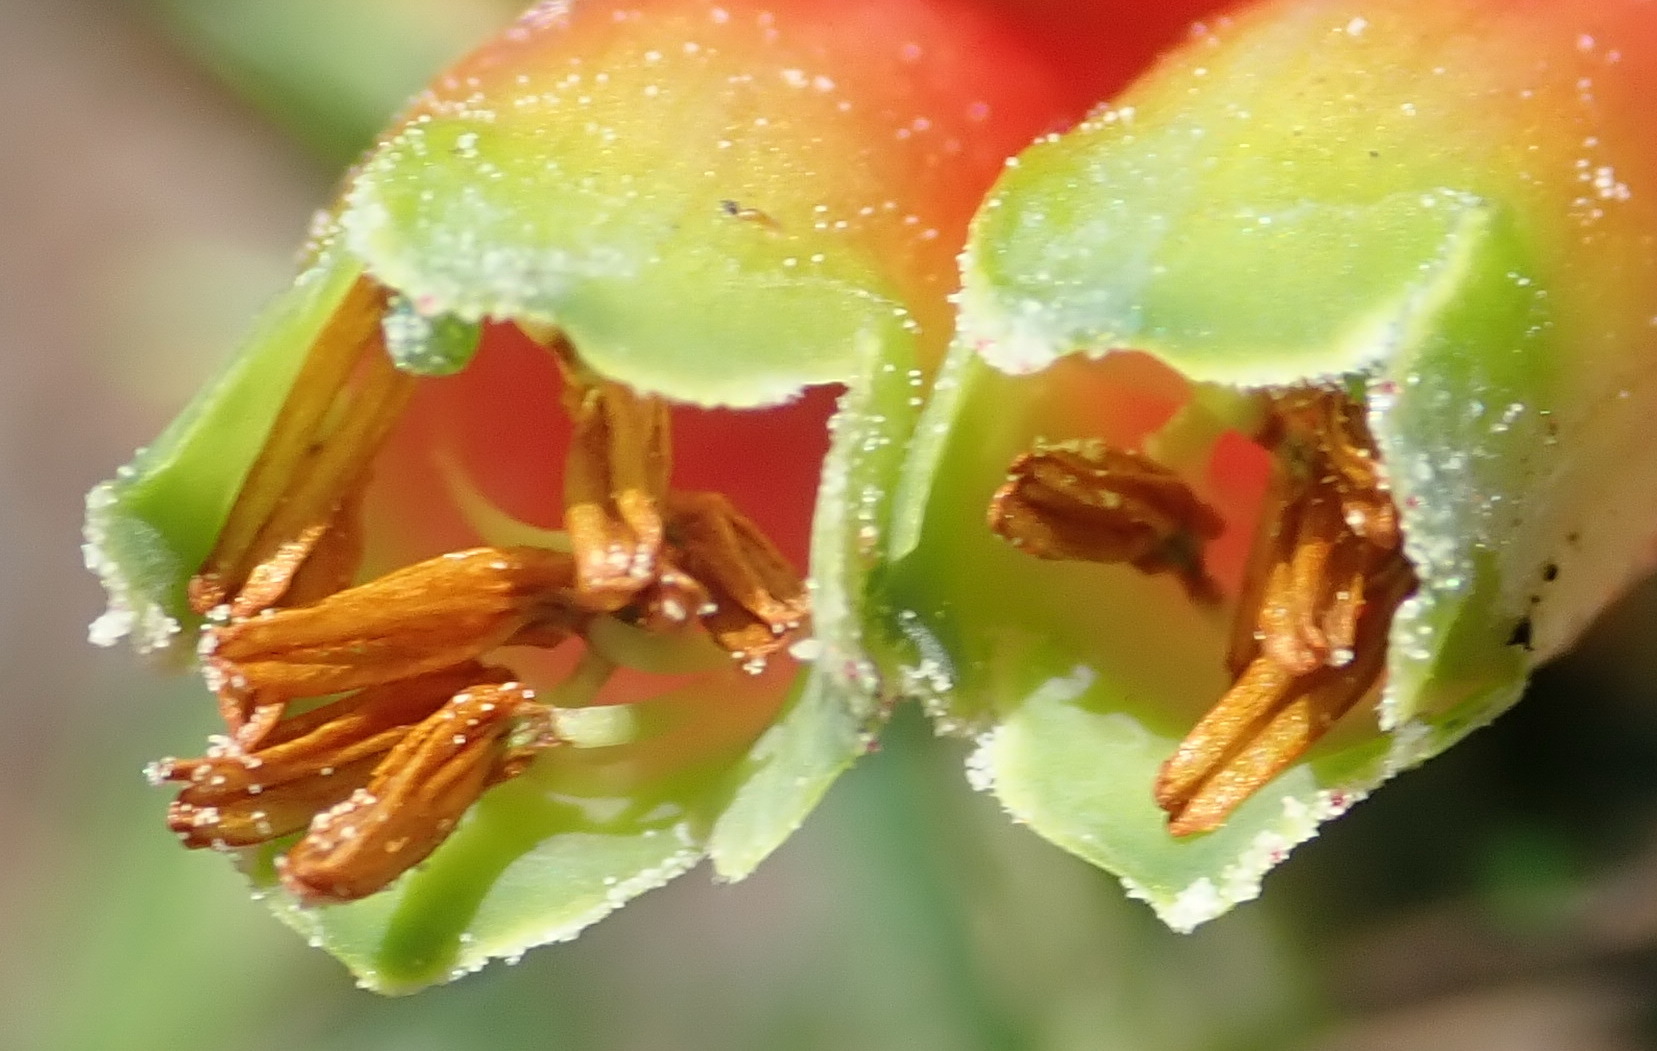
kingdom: Plantae
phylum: Tracheophyta
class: Magnoliopsida
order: Ericales
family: Ericaceae
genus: Erica
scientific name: Erica unicolor
